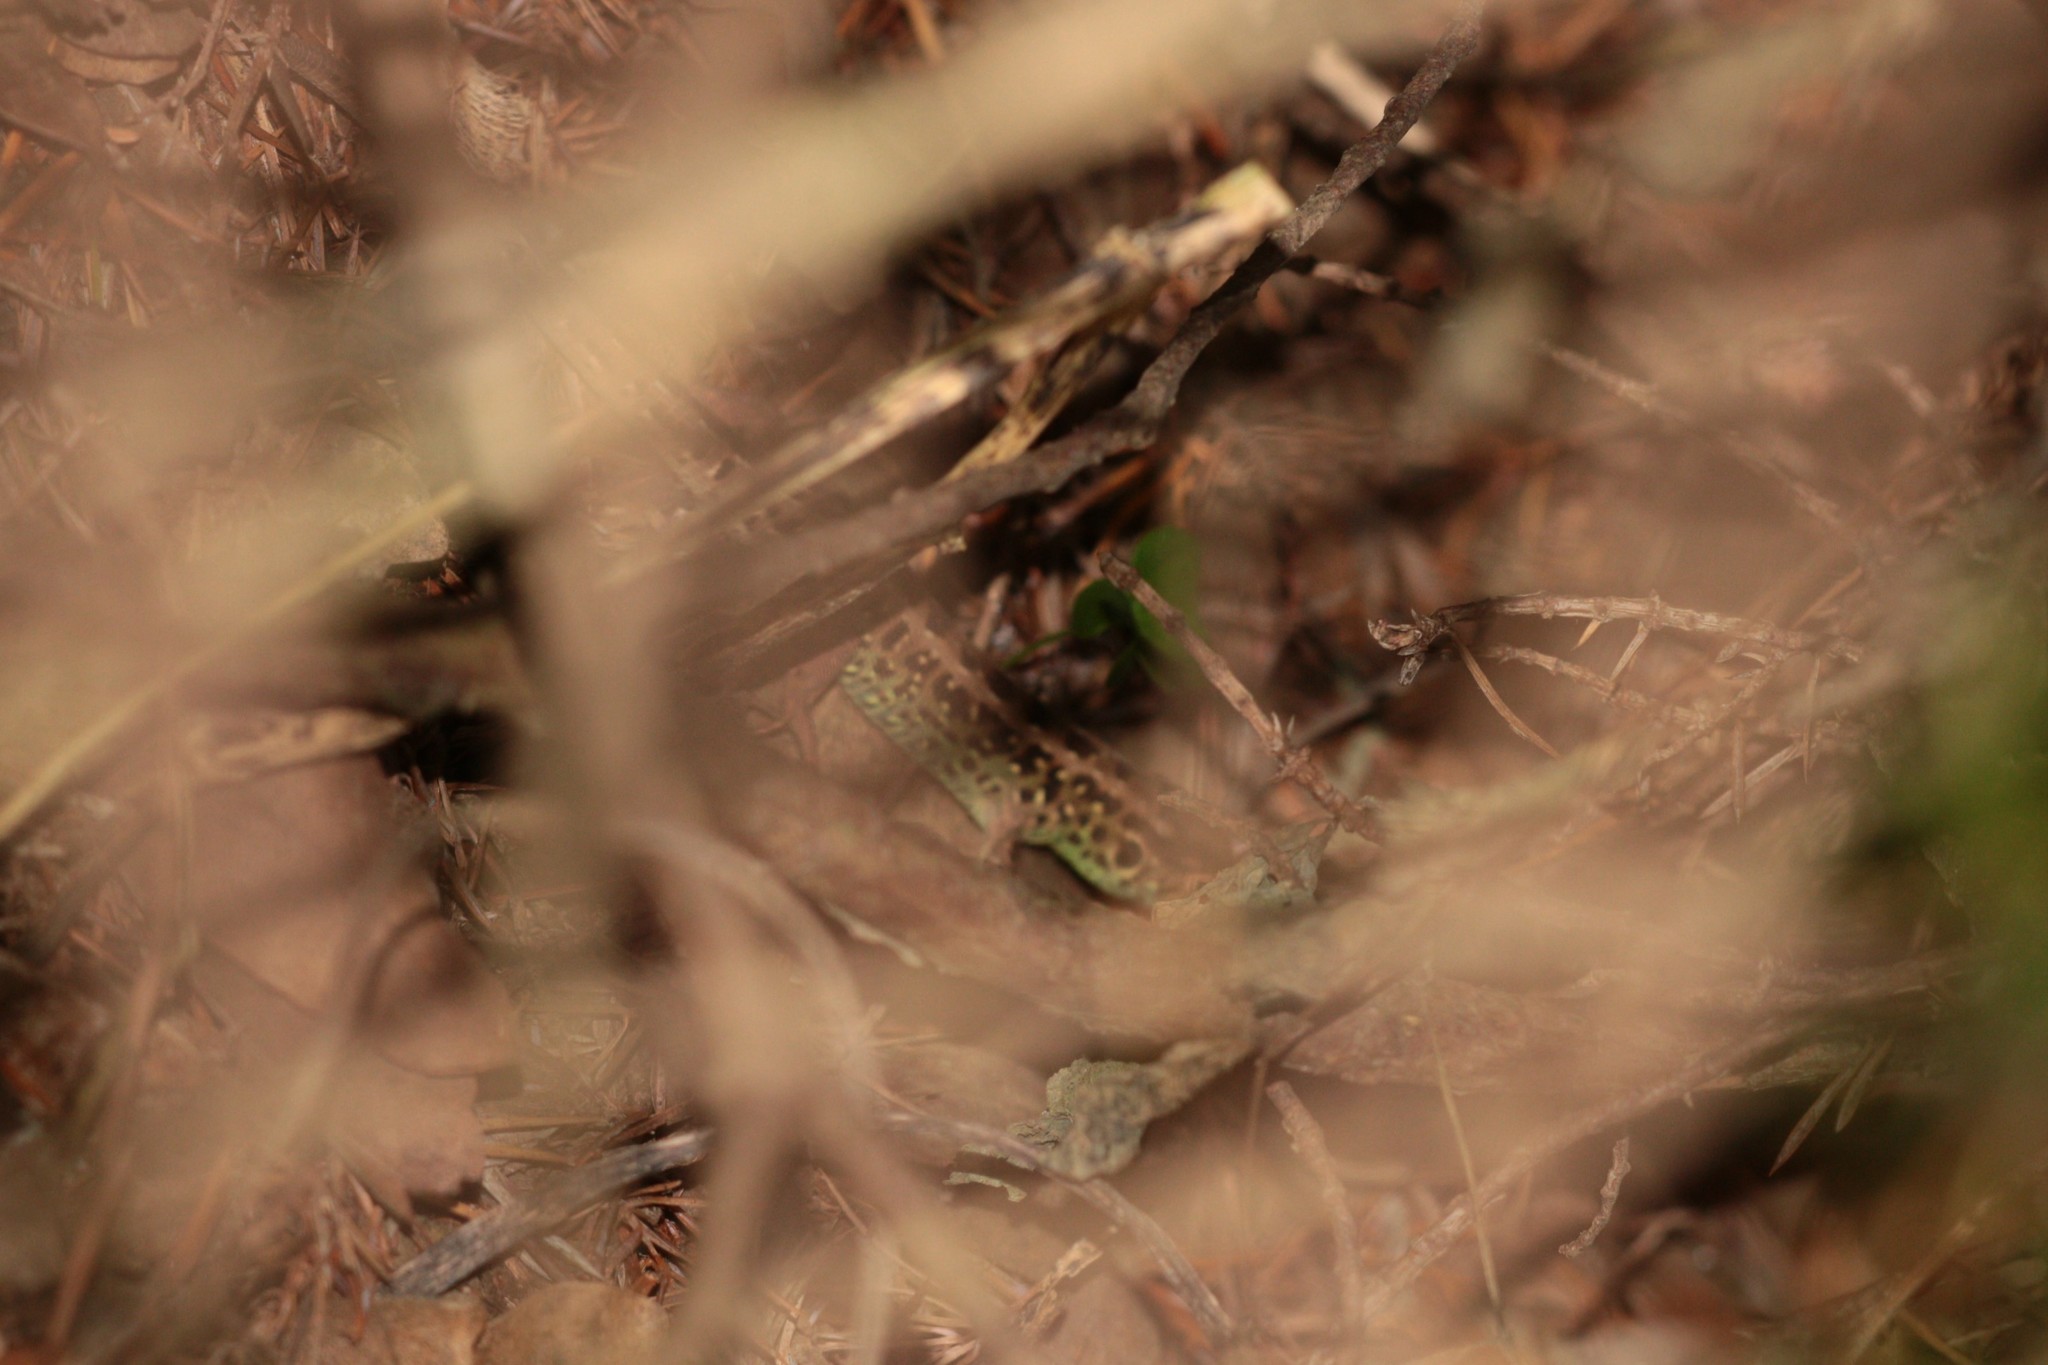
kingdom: Animalia
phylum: Chordata
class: Squamata
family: Lacertidae
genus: Lacerta
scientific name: Lacerta agilis
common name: Sand lizard
